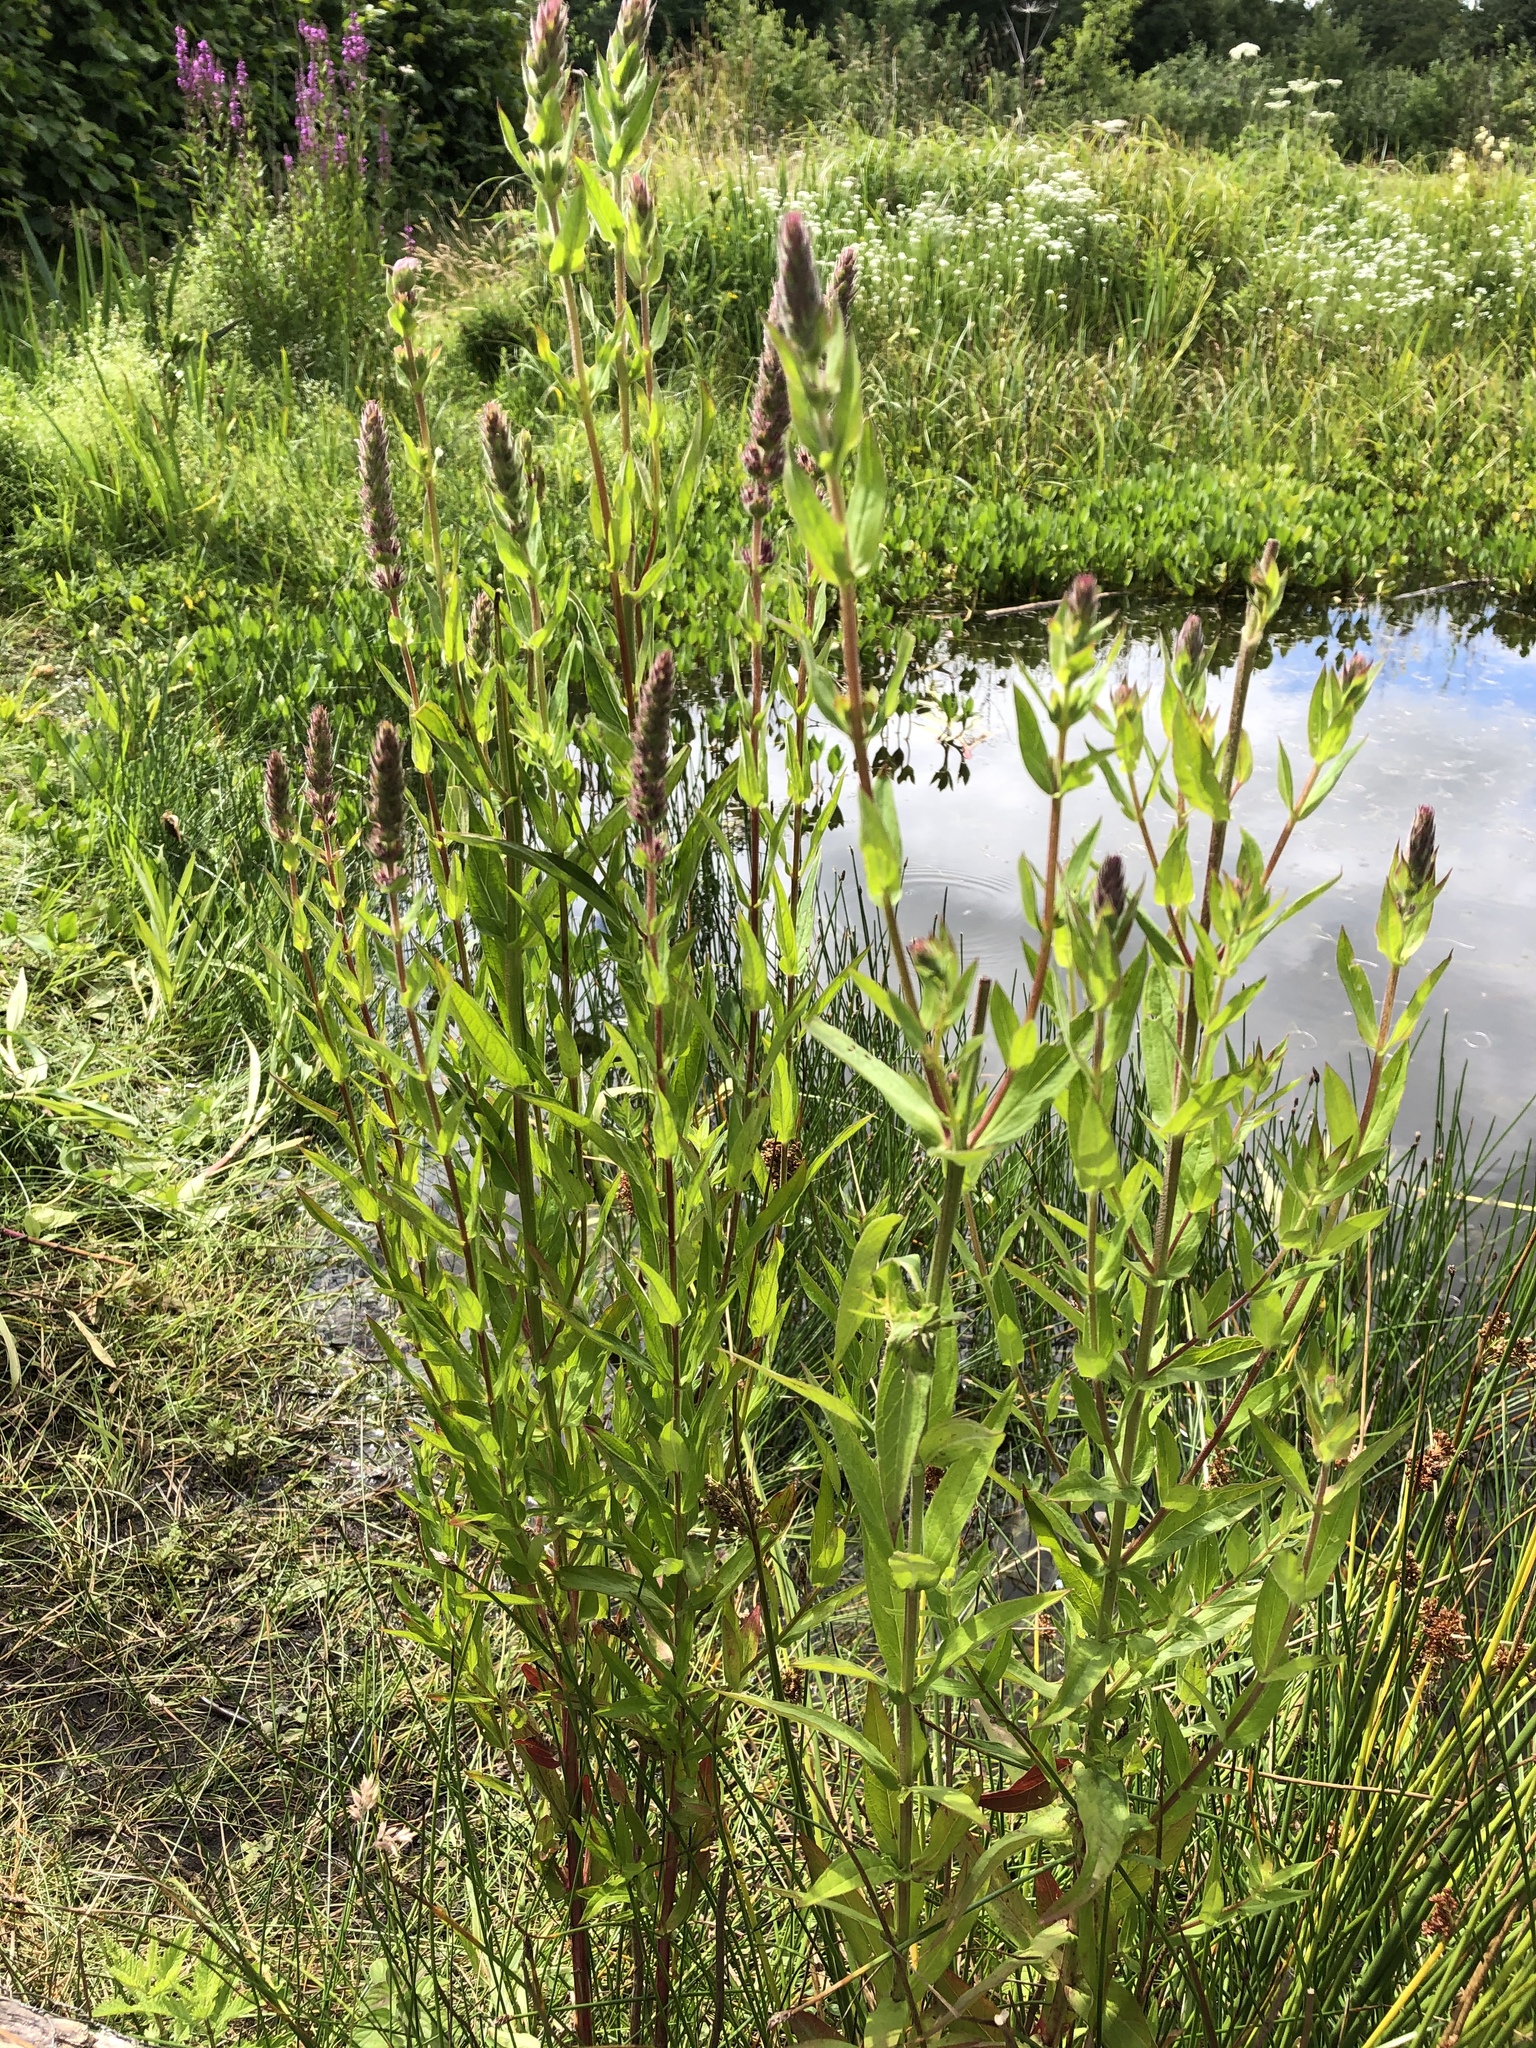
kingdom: Plantae
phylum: Tracheophyta
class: Magnoliopsida
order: Myrtales
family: Lythraceae
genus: Lythrum
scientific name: Lythrum salicaria
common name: Purple loosestrife
